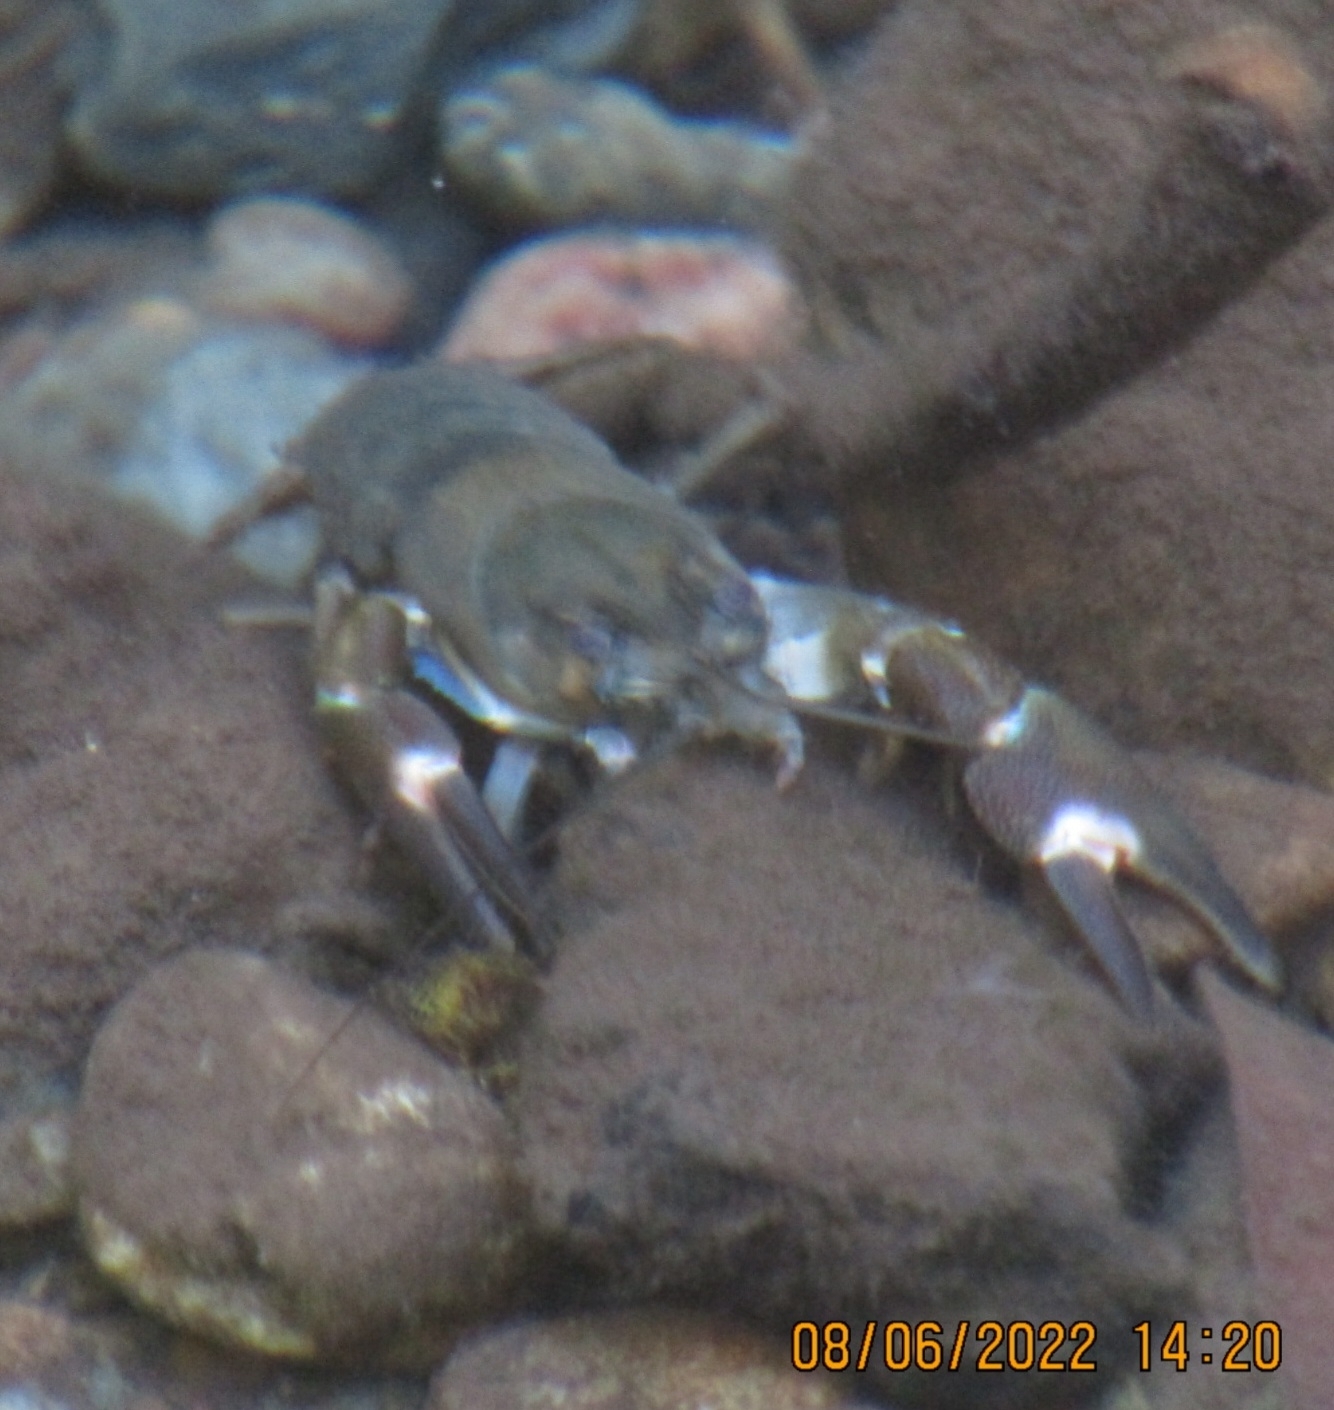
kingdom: Animalia
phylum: Arthropoda
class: Malacostraca
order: Decapoda
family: Astacidae
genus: Pacifastacus
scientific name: Pacifastacus leniusculus
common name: Signal crayfish
